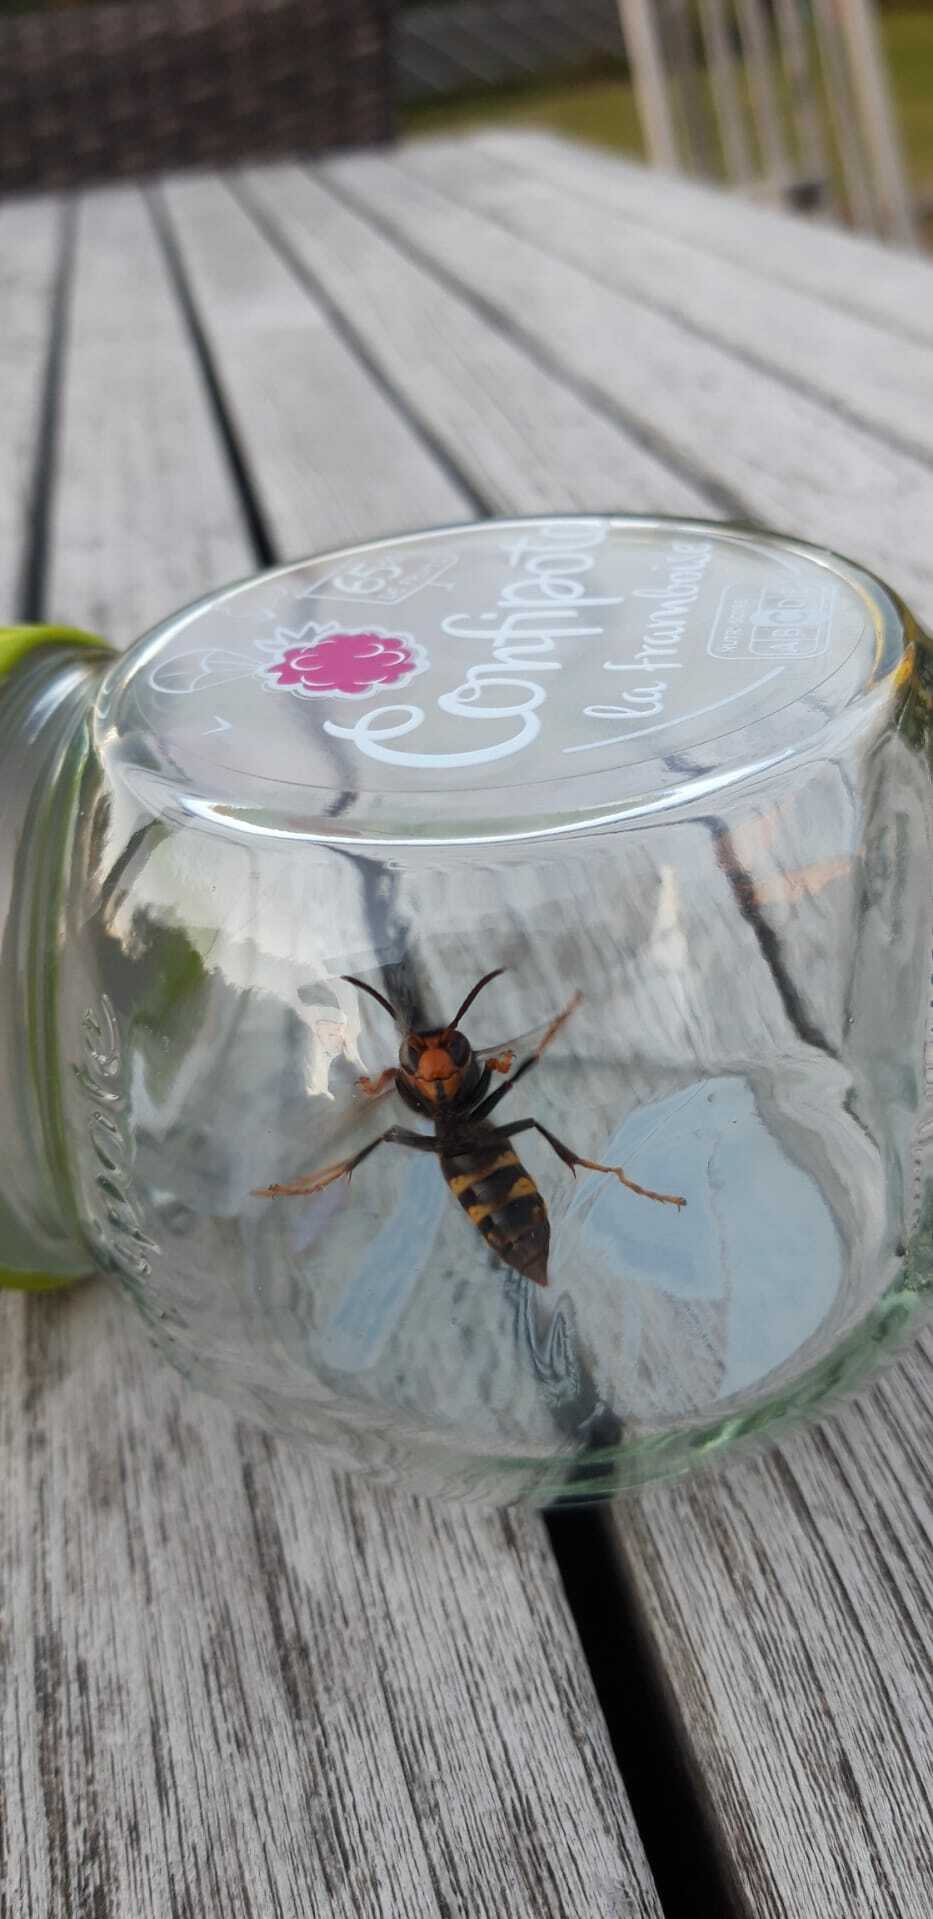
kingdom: Animalia
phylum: Arthropoda
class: Insecta
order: Hymenoptera
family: Vespidae
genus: Vespa
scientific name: Vespa velutina
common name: Asian hornet
